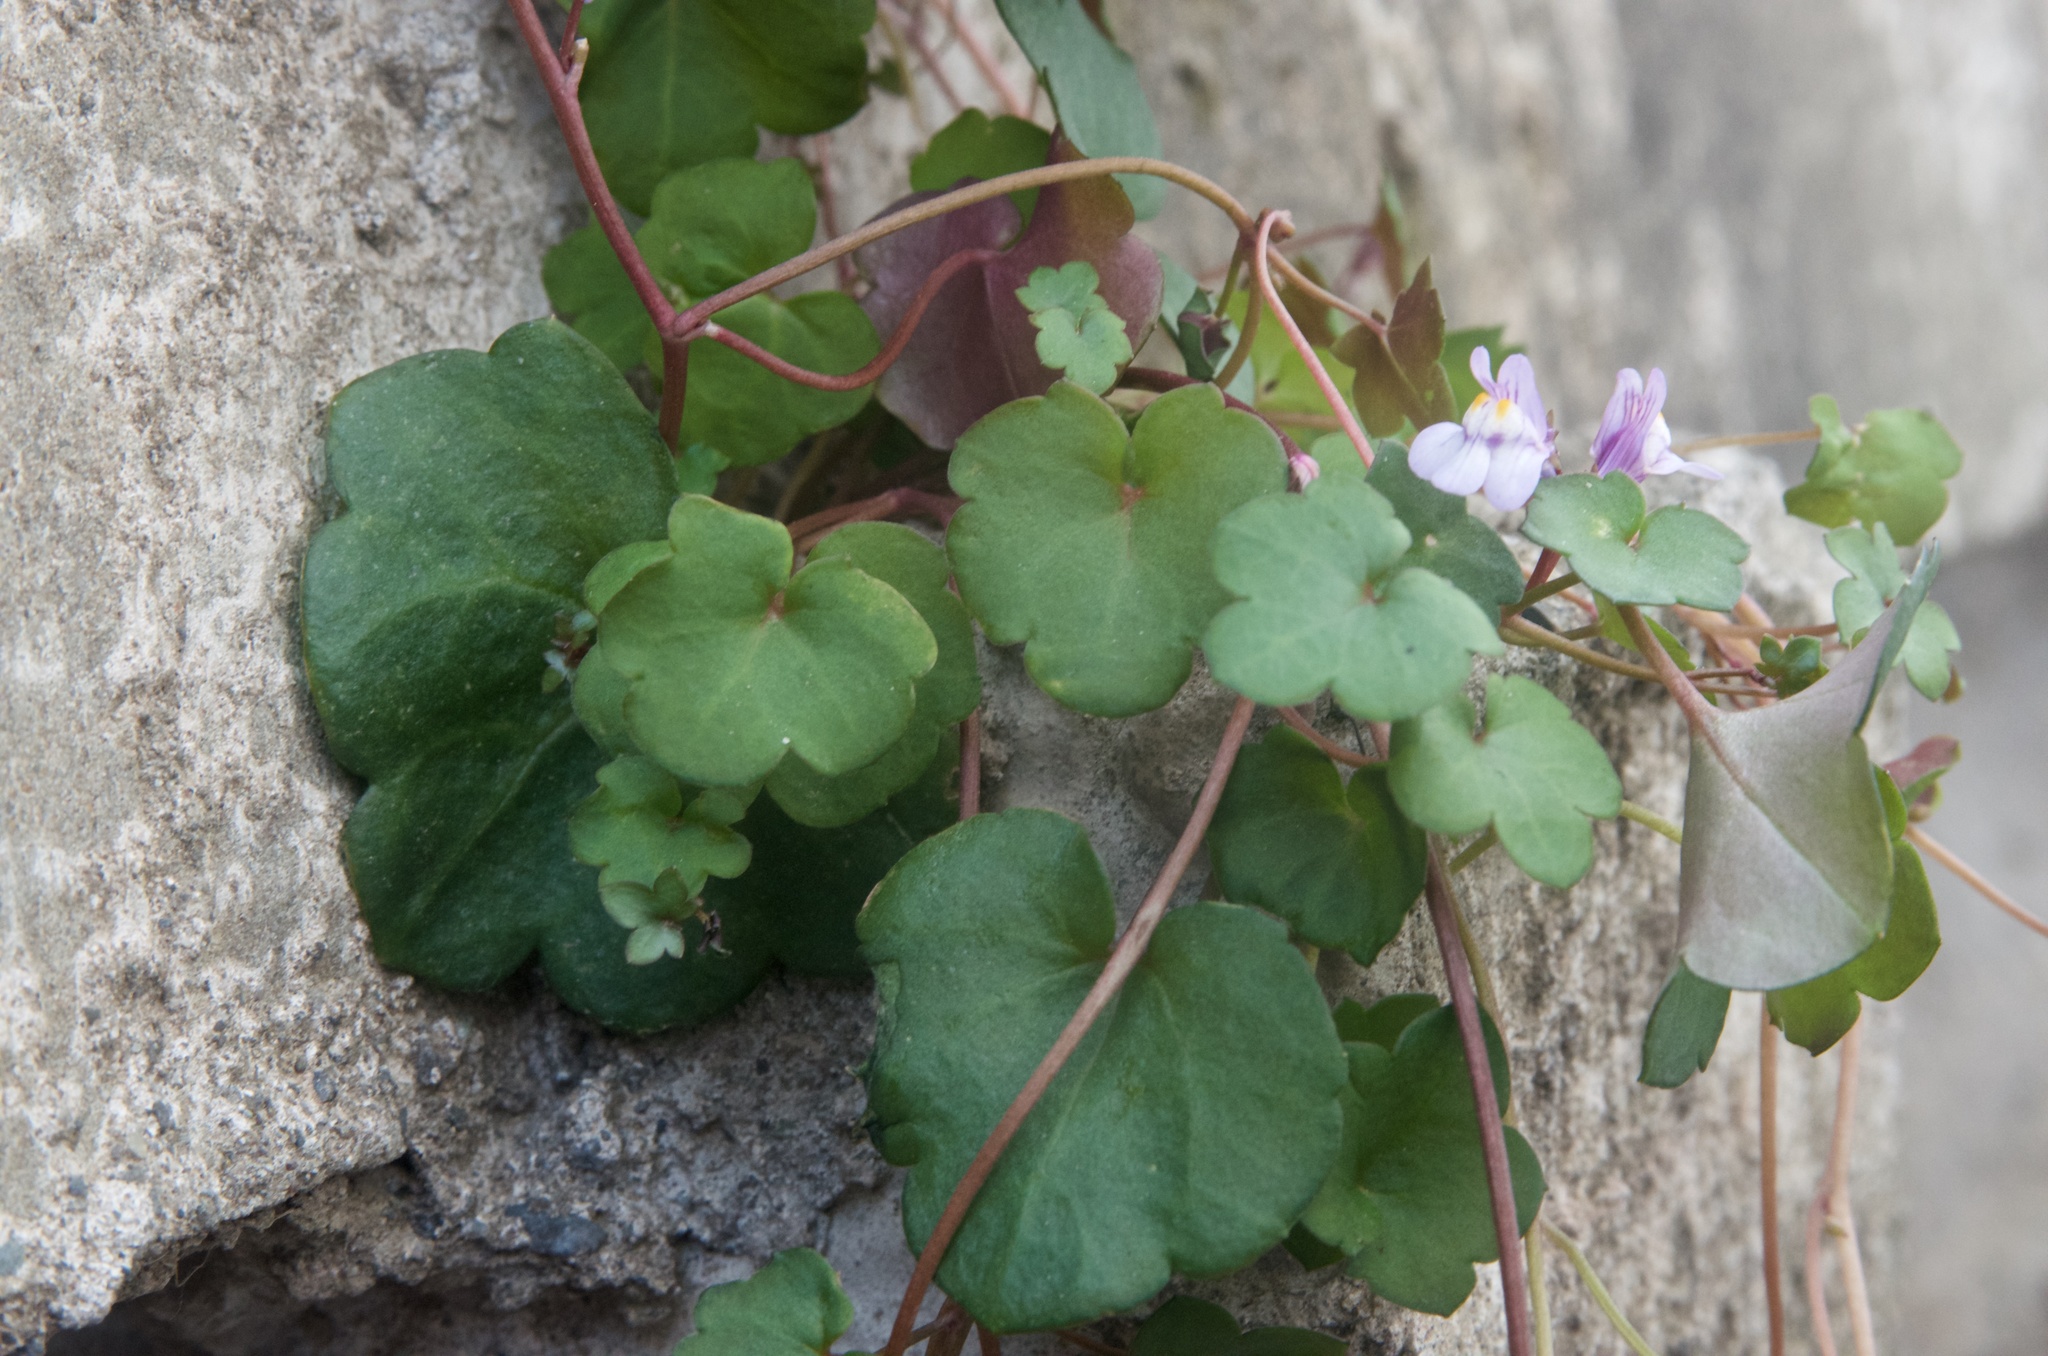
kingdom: Plantae
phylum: Tracheophyta
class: Magnoliopsida
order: Lamiales
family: Plantaginaceae
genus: Cymbalaria
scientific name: Cymbalaria muralis
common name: Ivy-leaved toadflax
